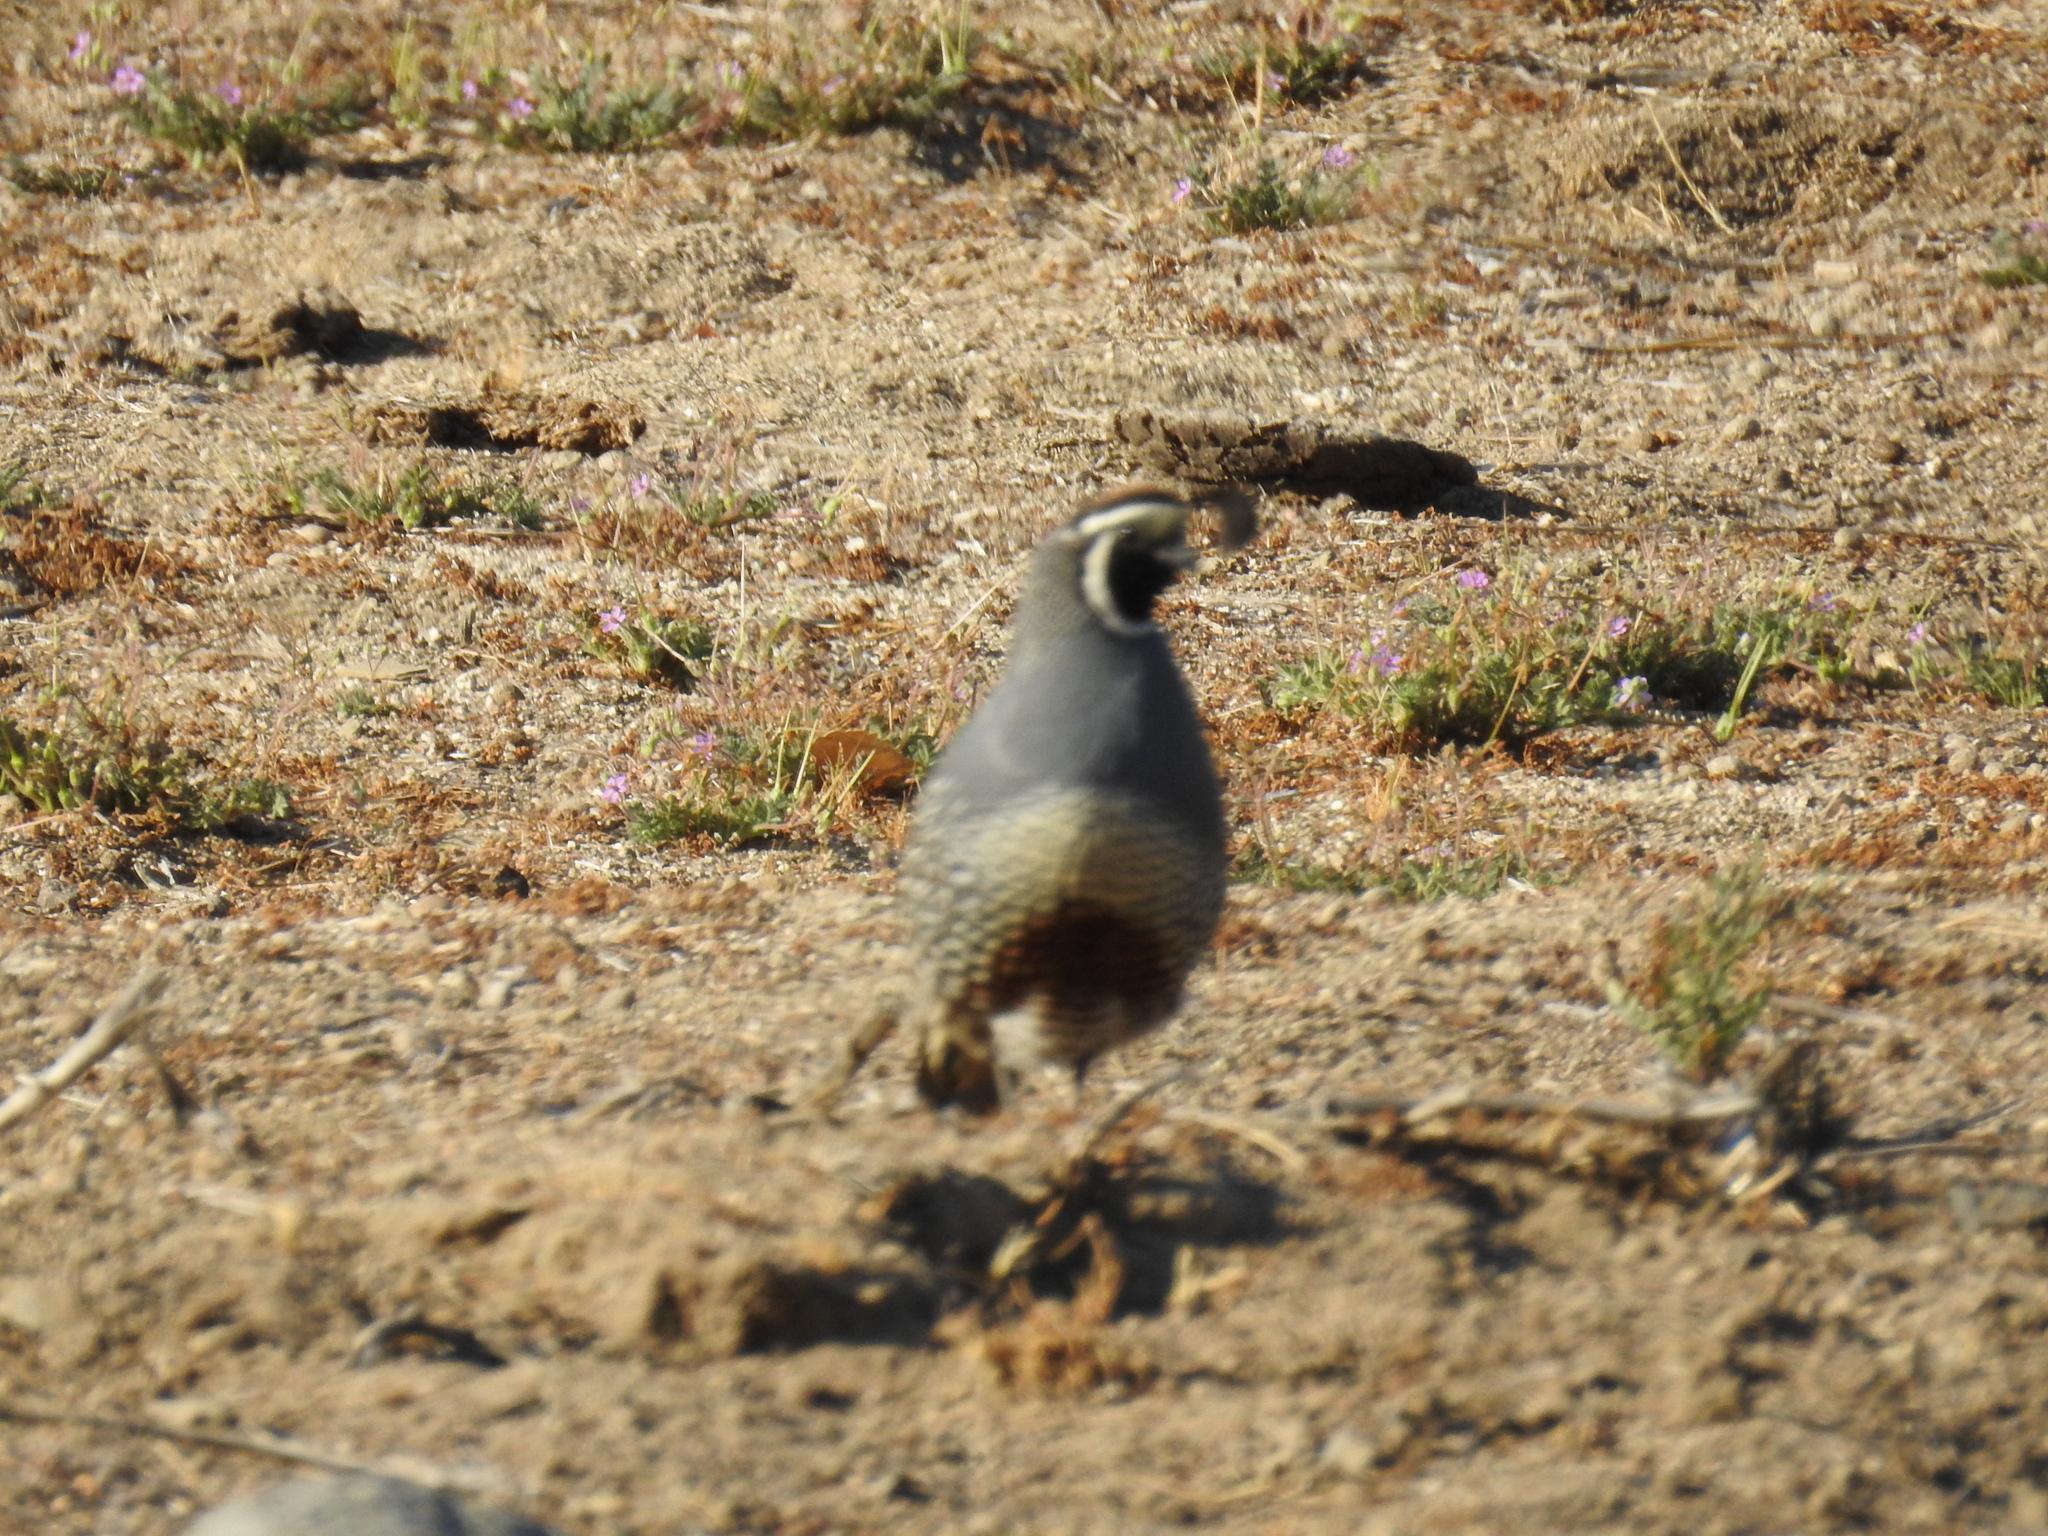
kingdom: Animalia
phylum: Chordata
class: Aves
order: Galliformes
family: Odontophoridae
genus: Callipepla
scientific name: Callipepla californica
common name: California quail
